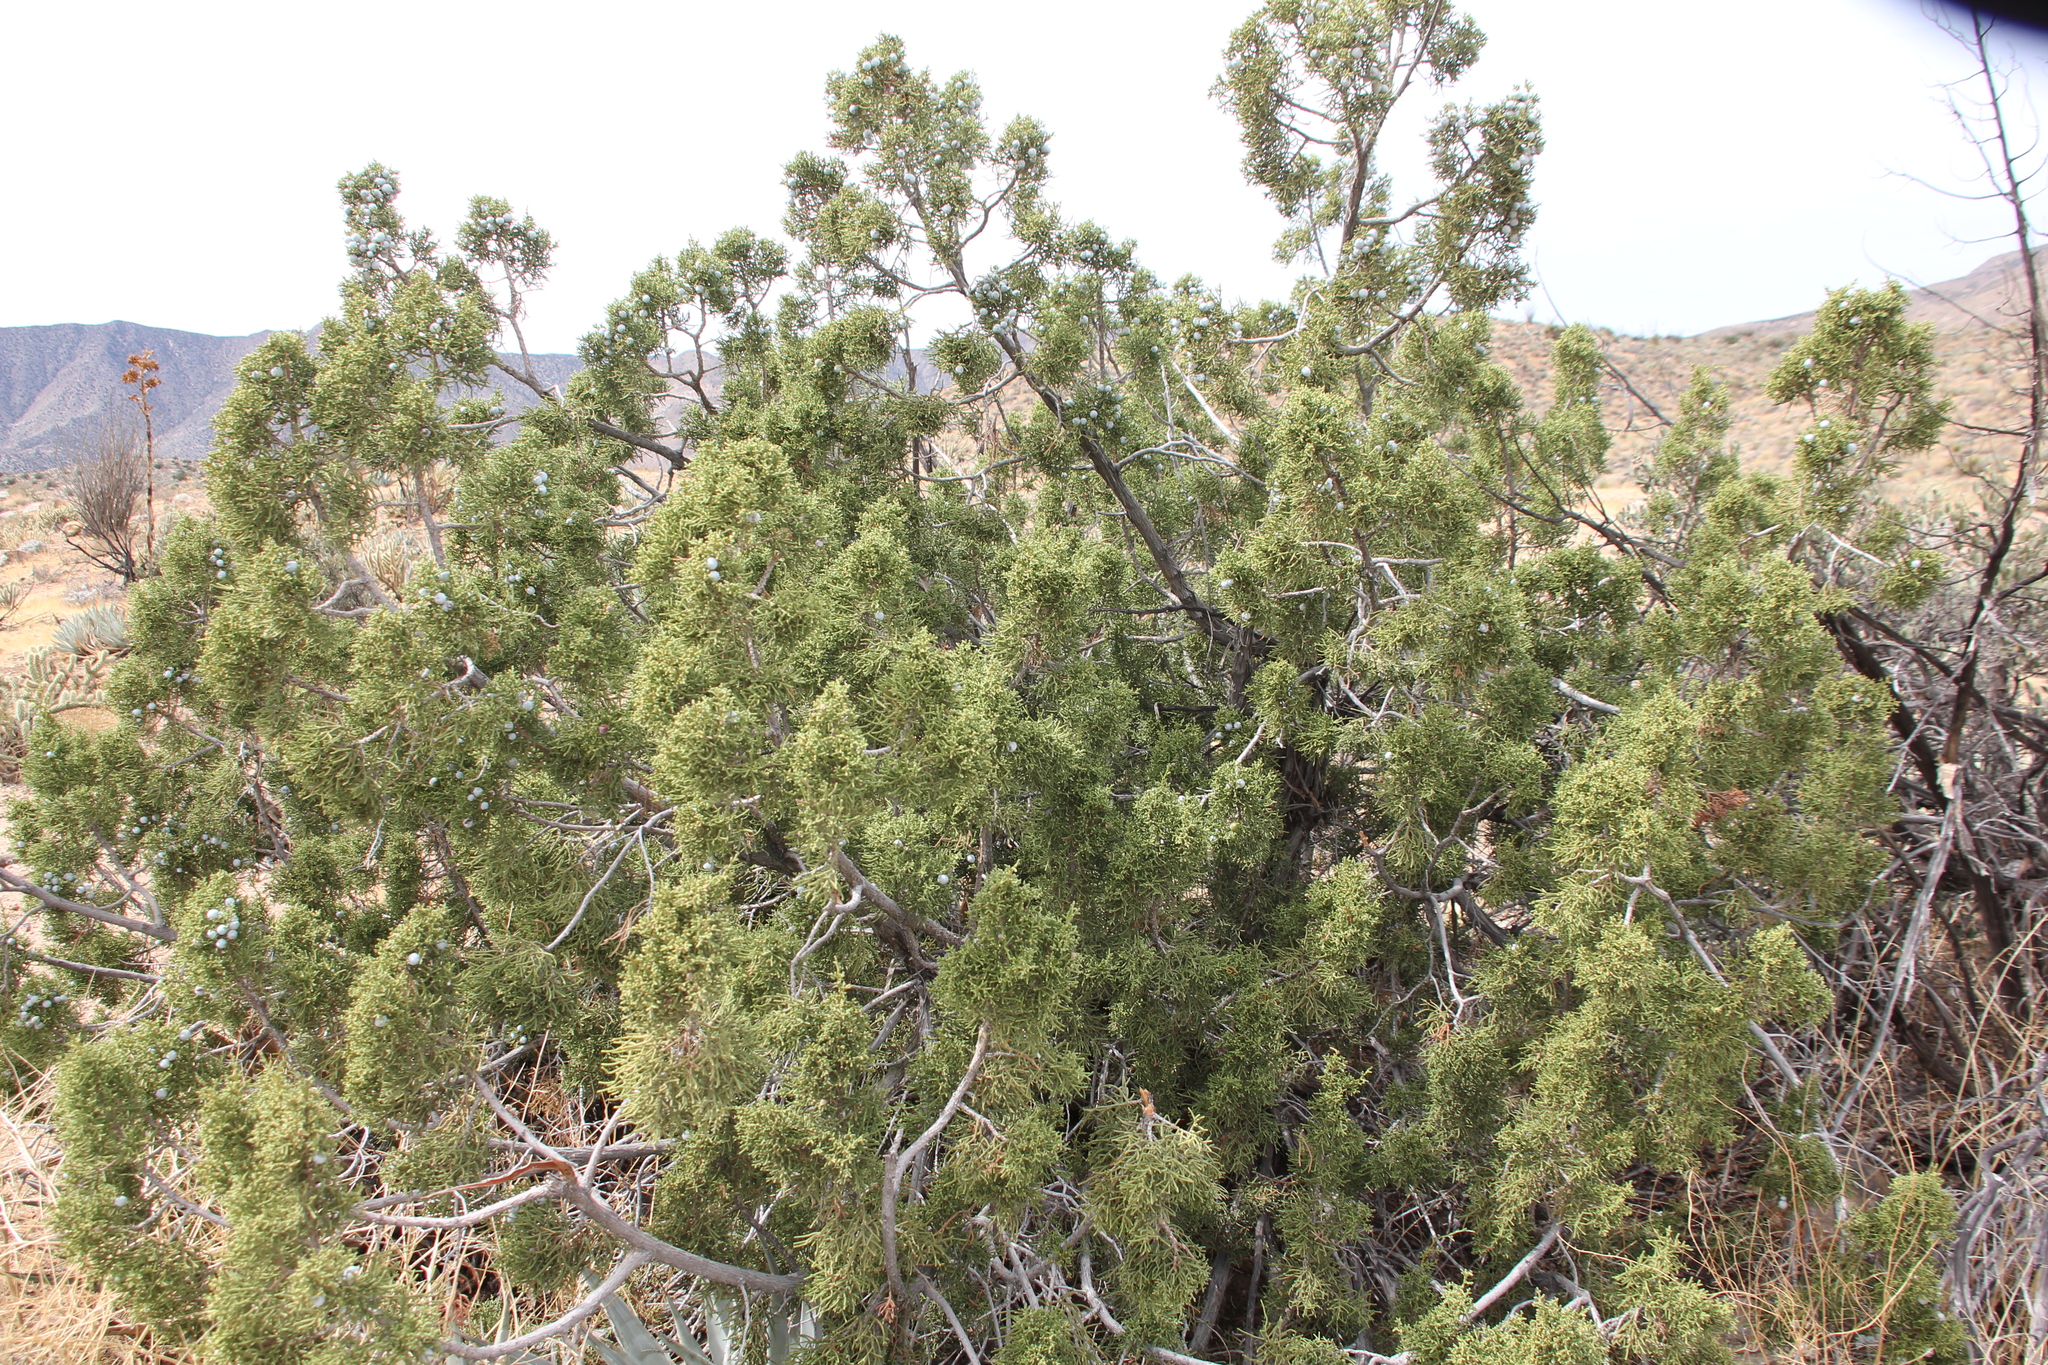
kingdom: Plantae
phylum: Tracheophyta
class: Pinopsida
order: Pinales
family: Cupressaceae
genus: Juniperus
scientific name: Juniperus californica
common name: California juniper
